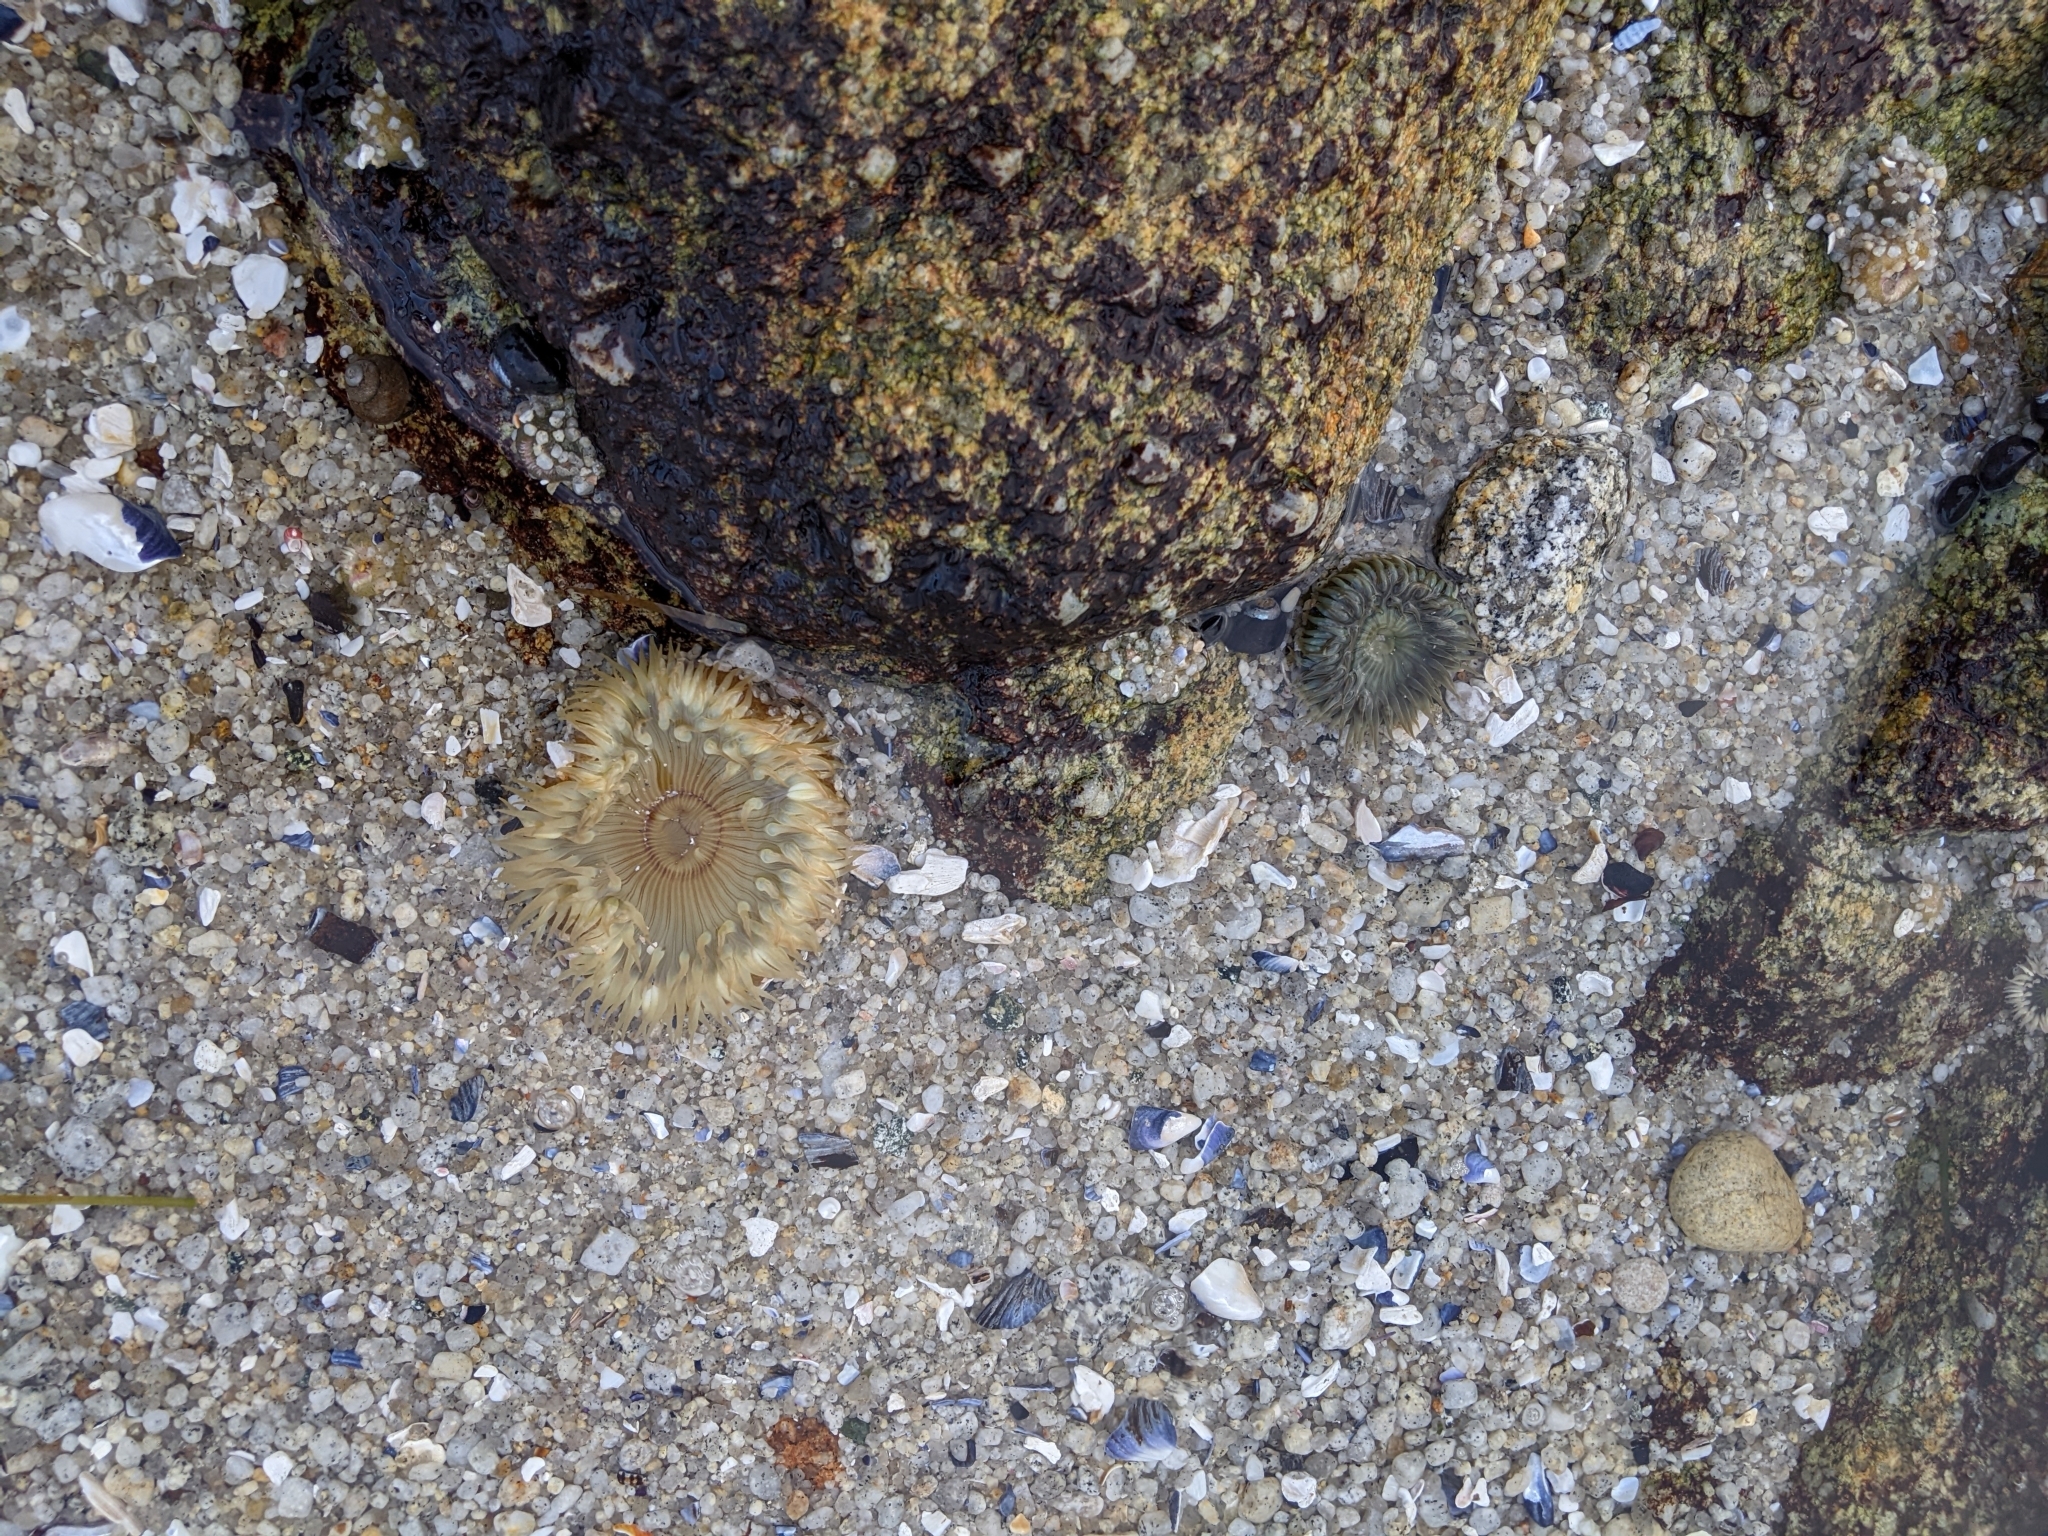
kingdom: Animalia
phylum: Cnidaria
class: Anthozoa
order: Actiniaria
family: Actiniidae
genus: Anthopleura
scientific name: Anthopleura sola
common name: Sun anemone
